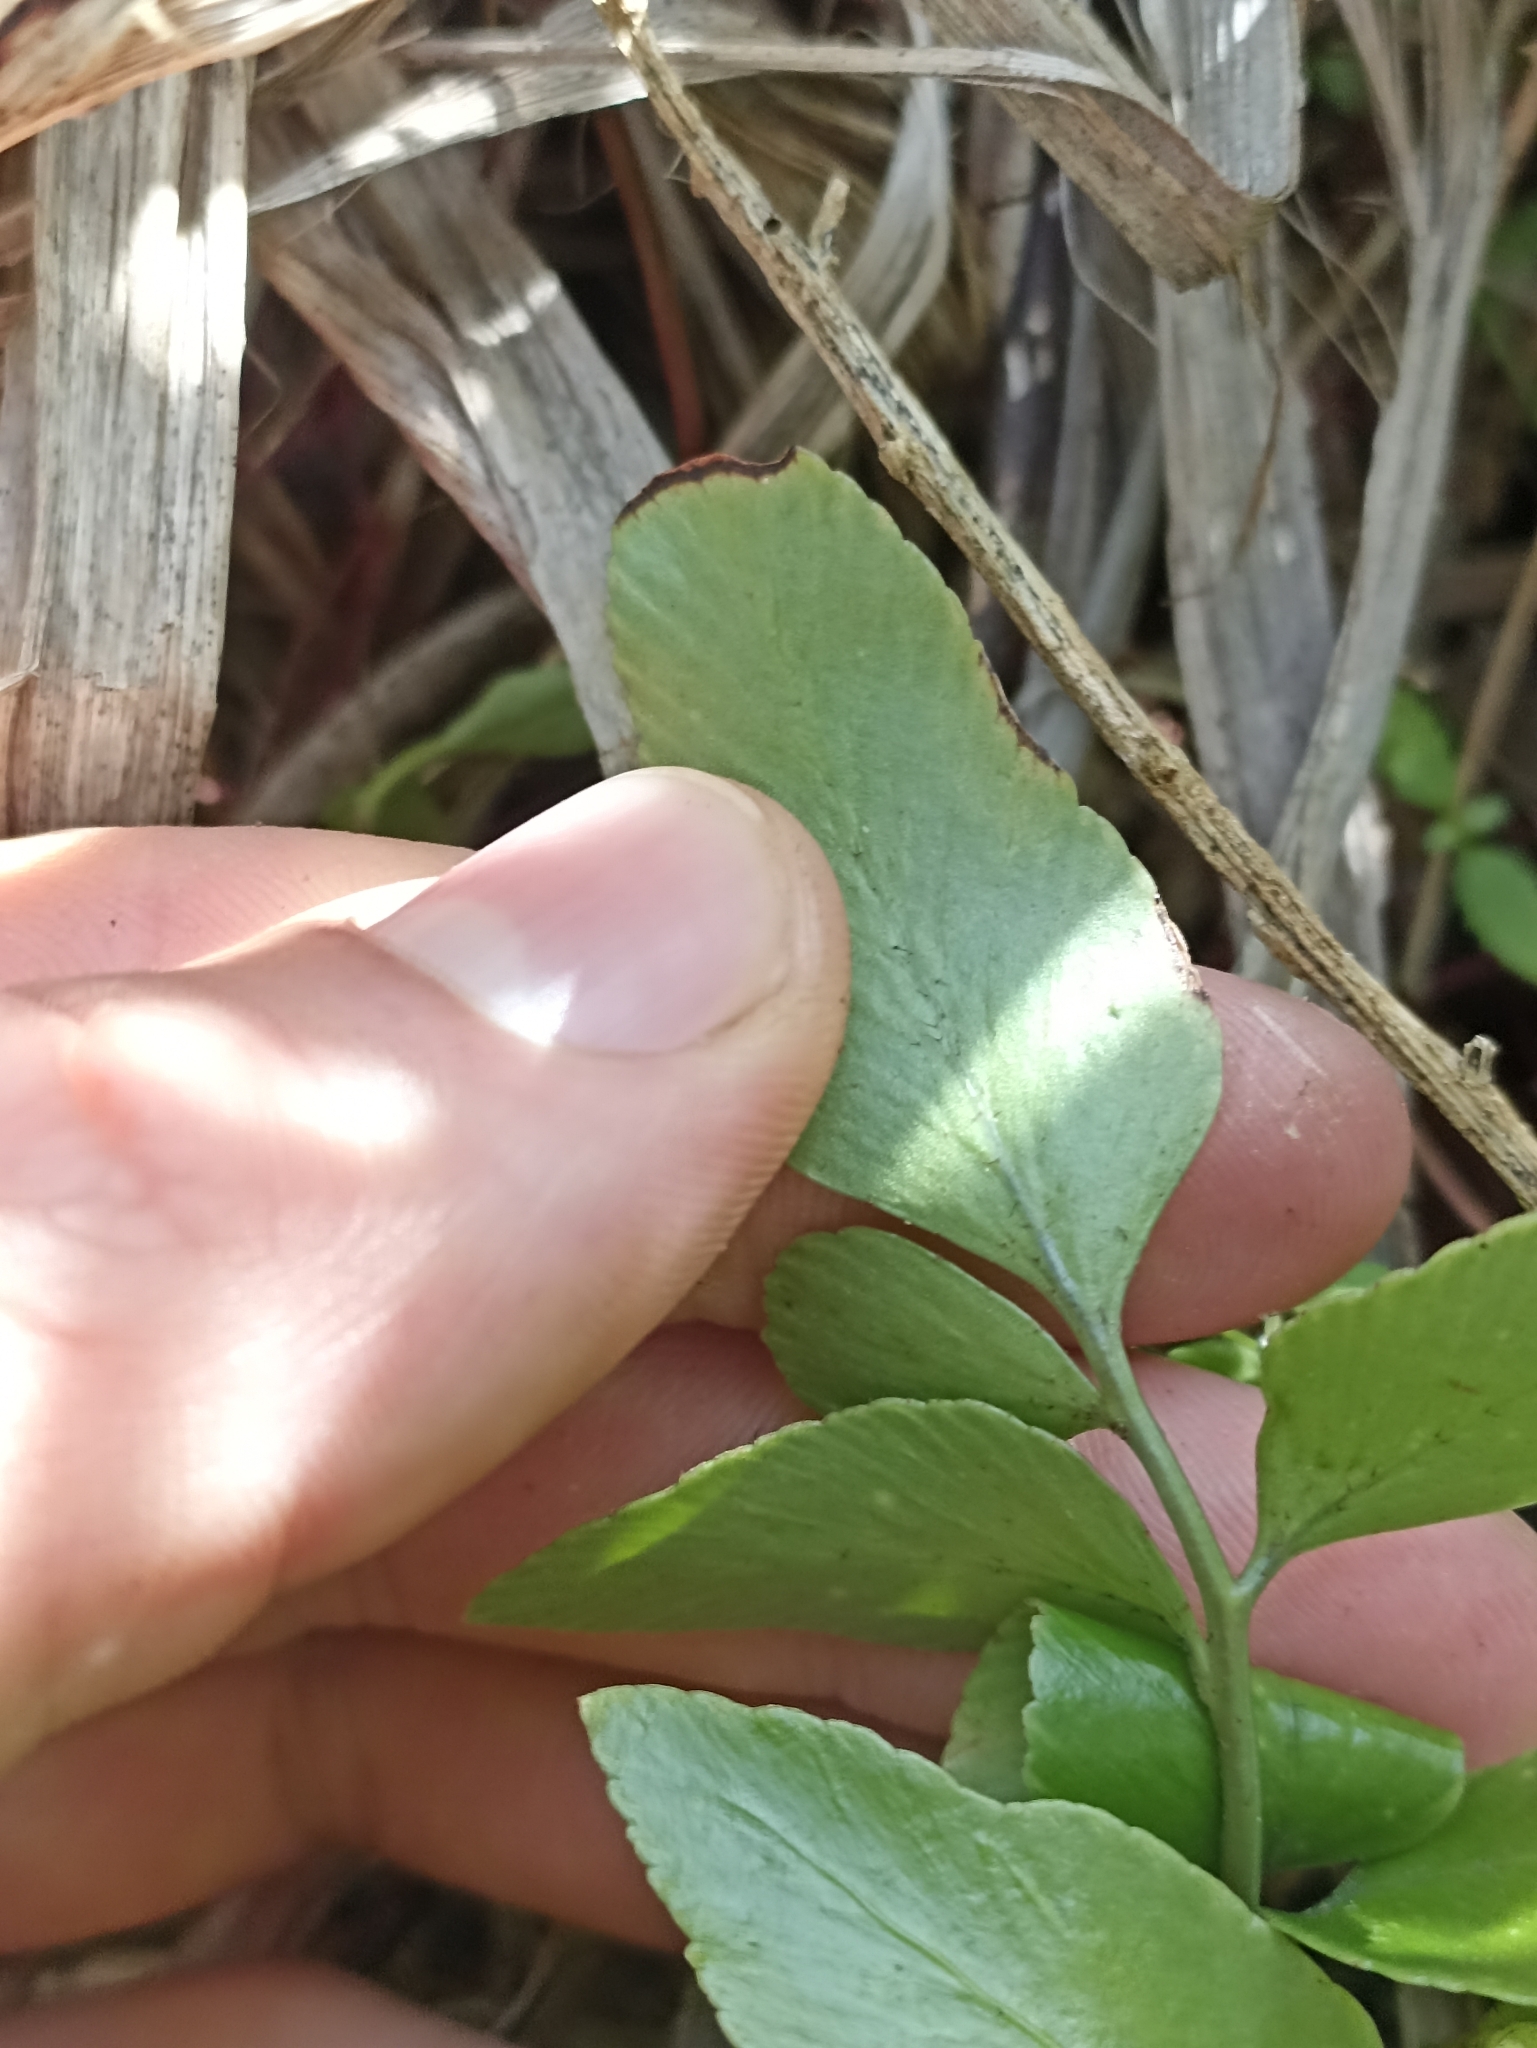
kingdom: Plantae
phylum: Tracheophyta
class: Polypodiopsida
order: Polypodiales
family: Aspleniaceae
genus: Asplenium
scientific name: Asplenium oblongifolium
